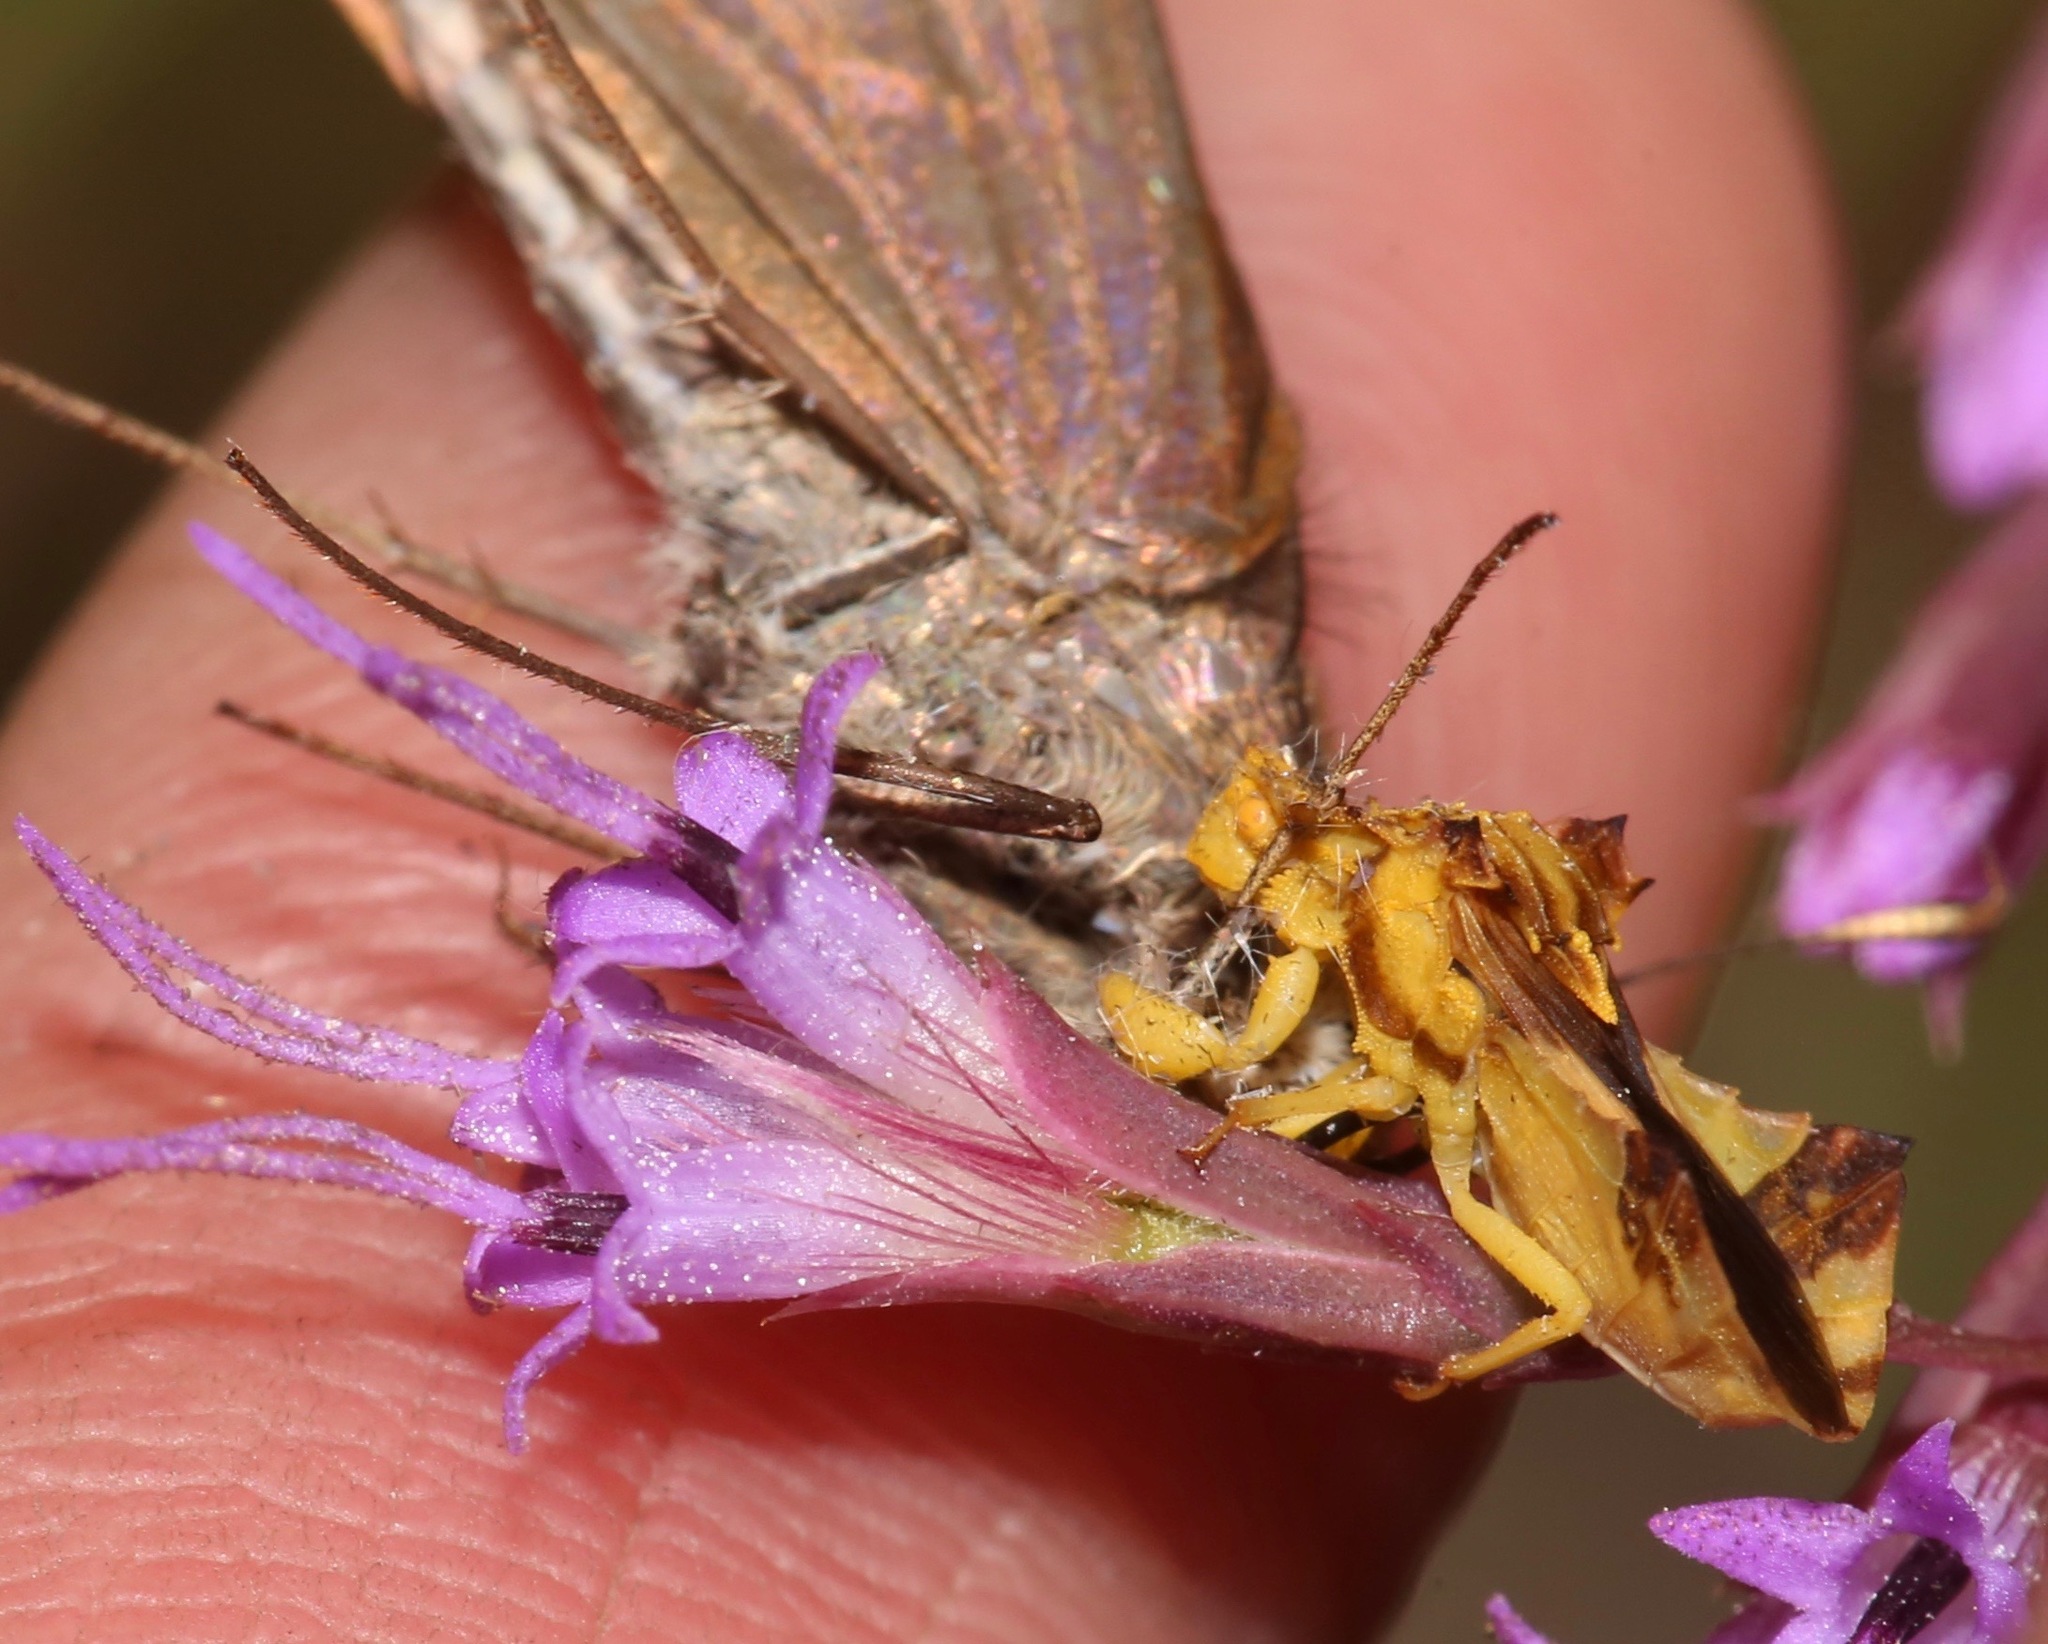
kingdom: Animalia
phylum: Arthropoda
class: Insecta
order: Hemiptera
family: Reduviidae
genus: Phymata
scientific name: Phymata fasciata
